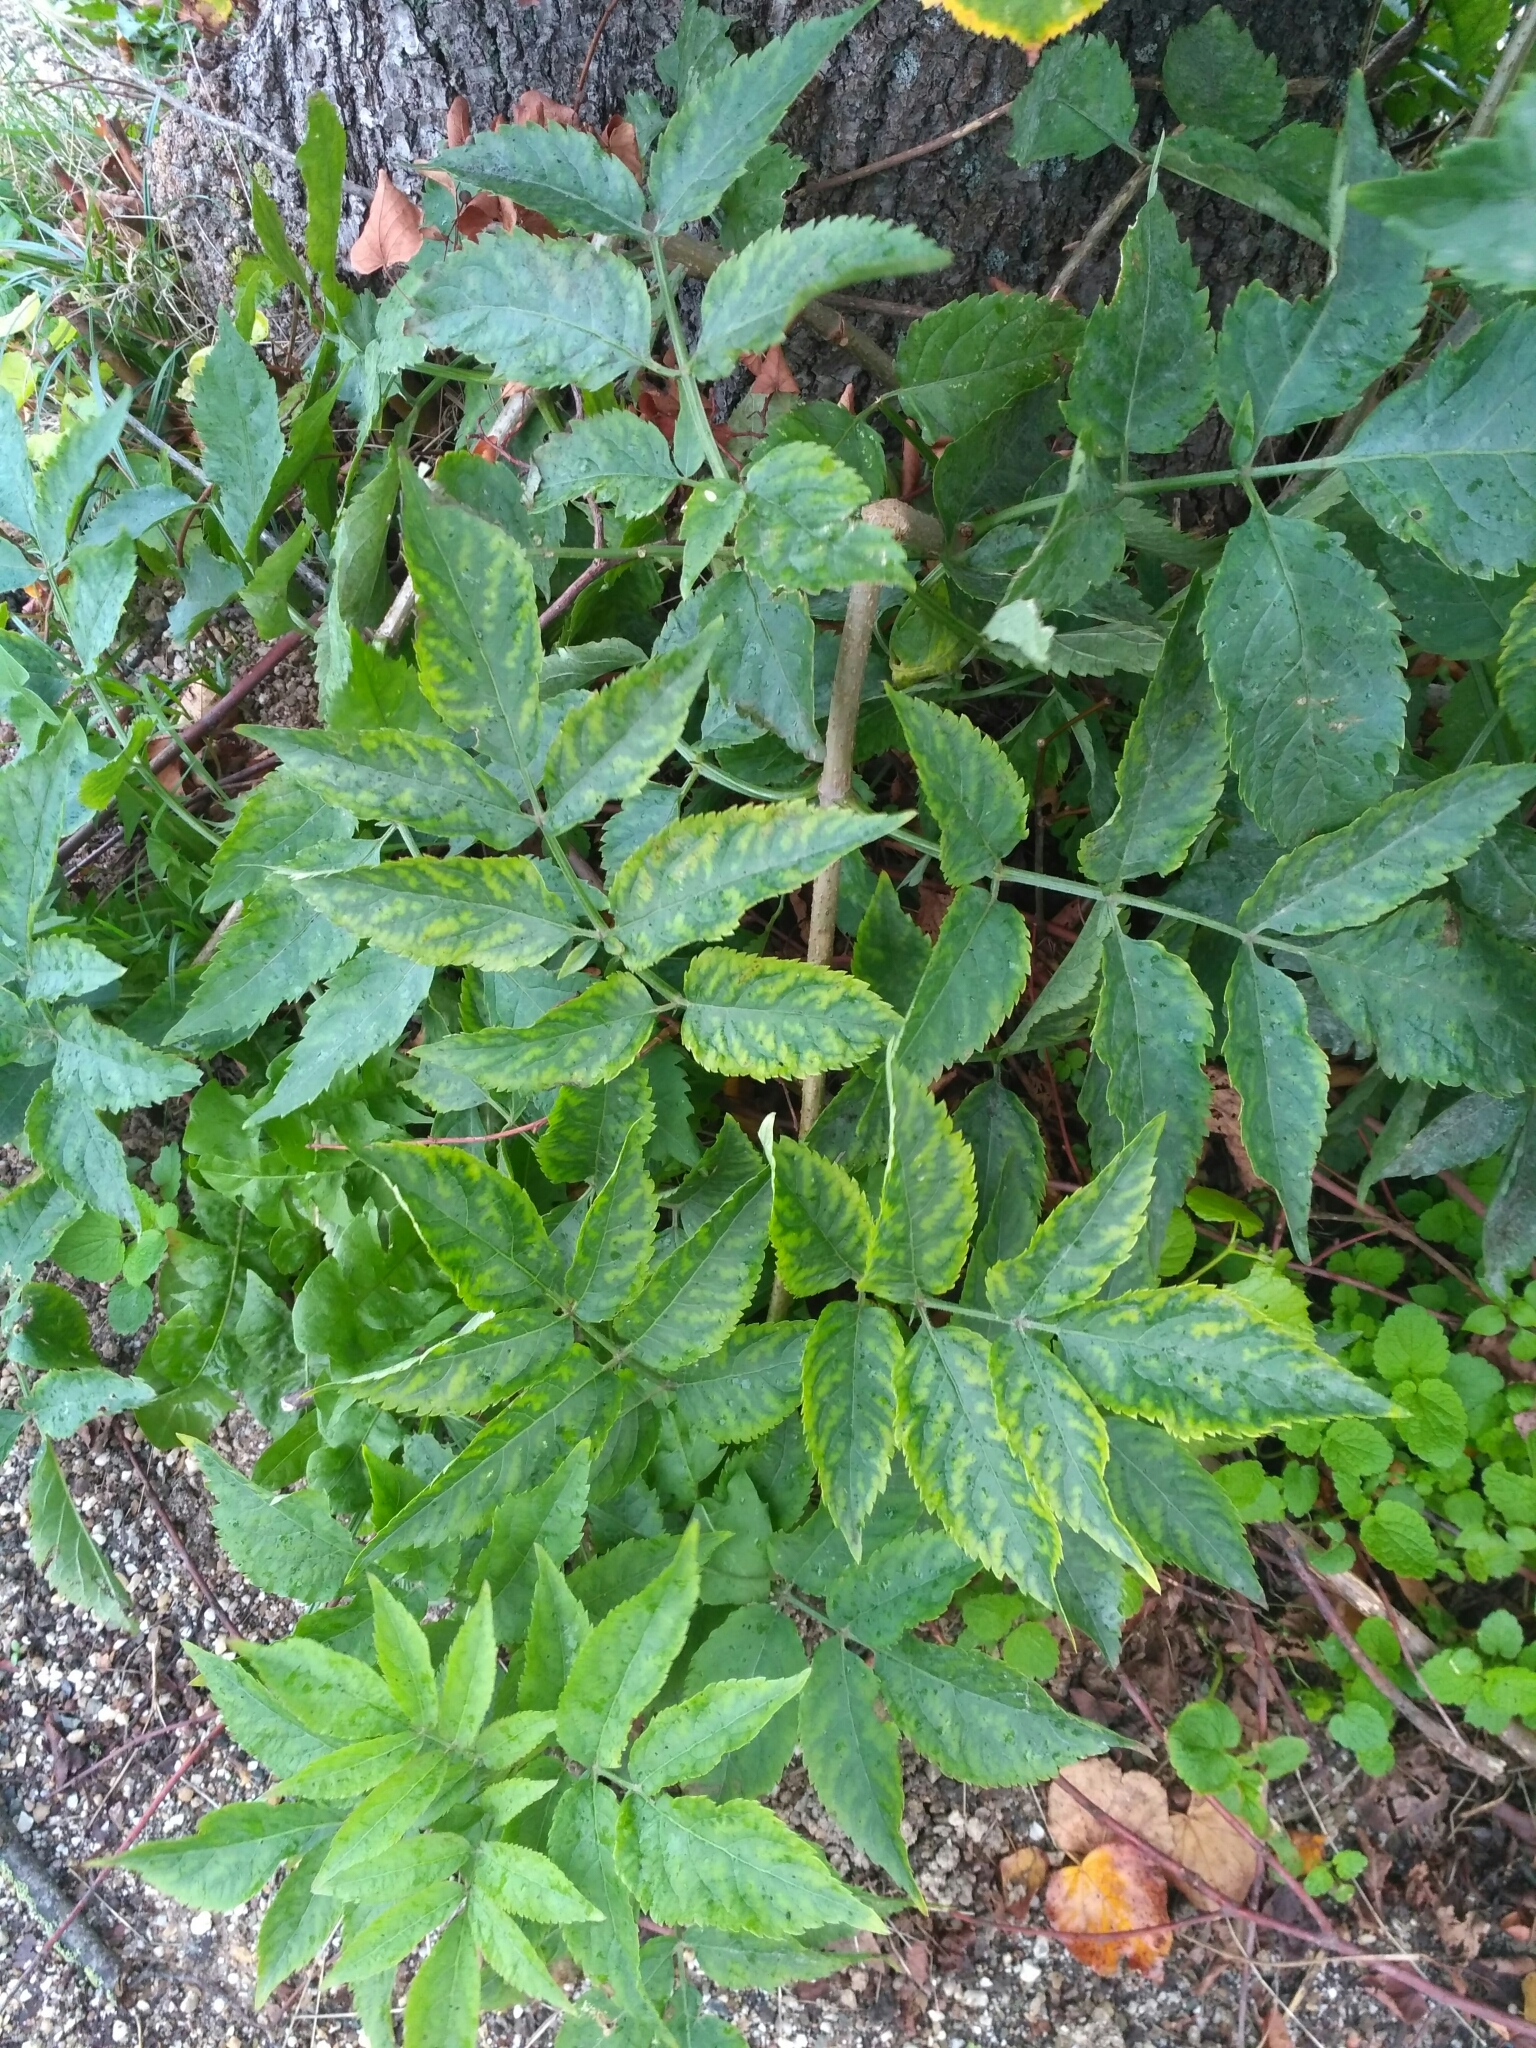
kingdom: Plantae
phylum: Tracheophyta
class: Magnoliopsida
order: Dipsacales
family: Viburnaceae
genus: Sambucus
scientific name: Sambucus nigra
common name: Elder
